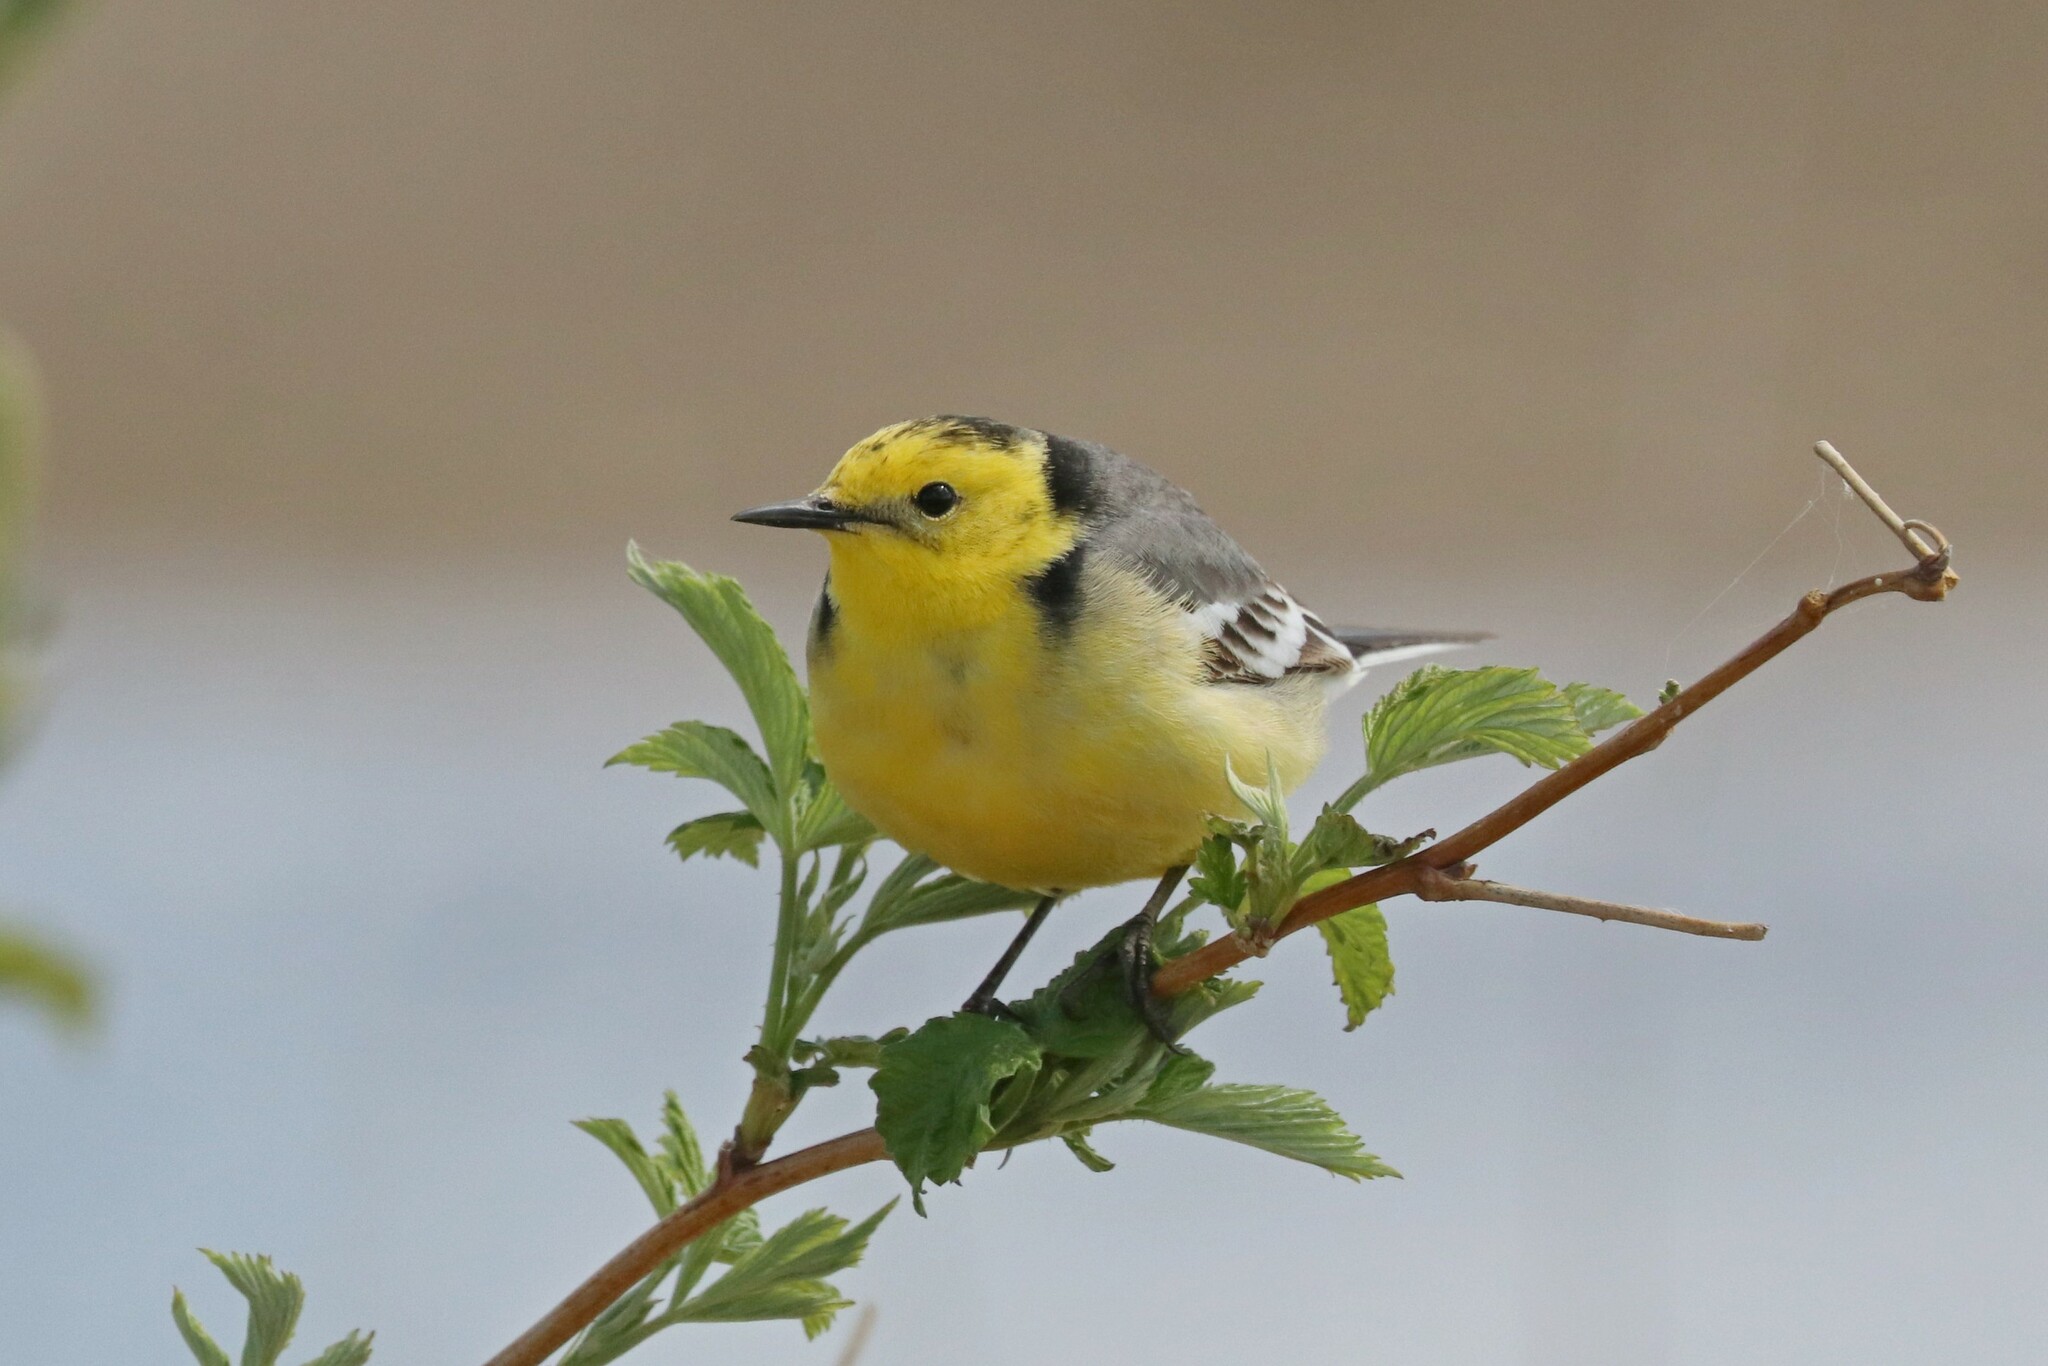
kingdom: Animalia
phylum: Chordata
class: Aves
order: Passeriformes
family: Motacillidae
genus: Motacilla
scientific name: Motacilla citreola
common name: Citrine wagtail
